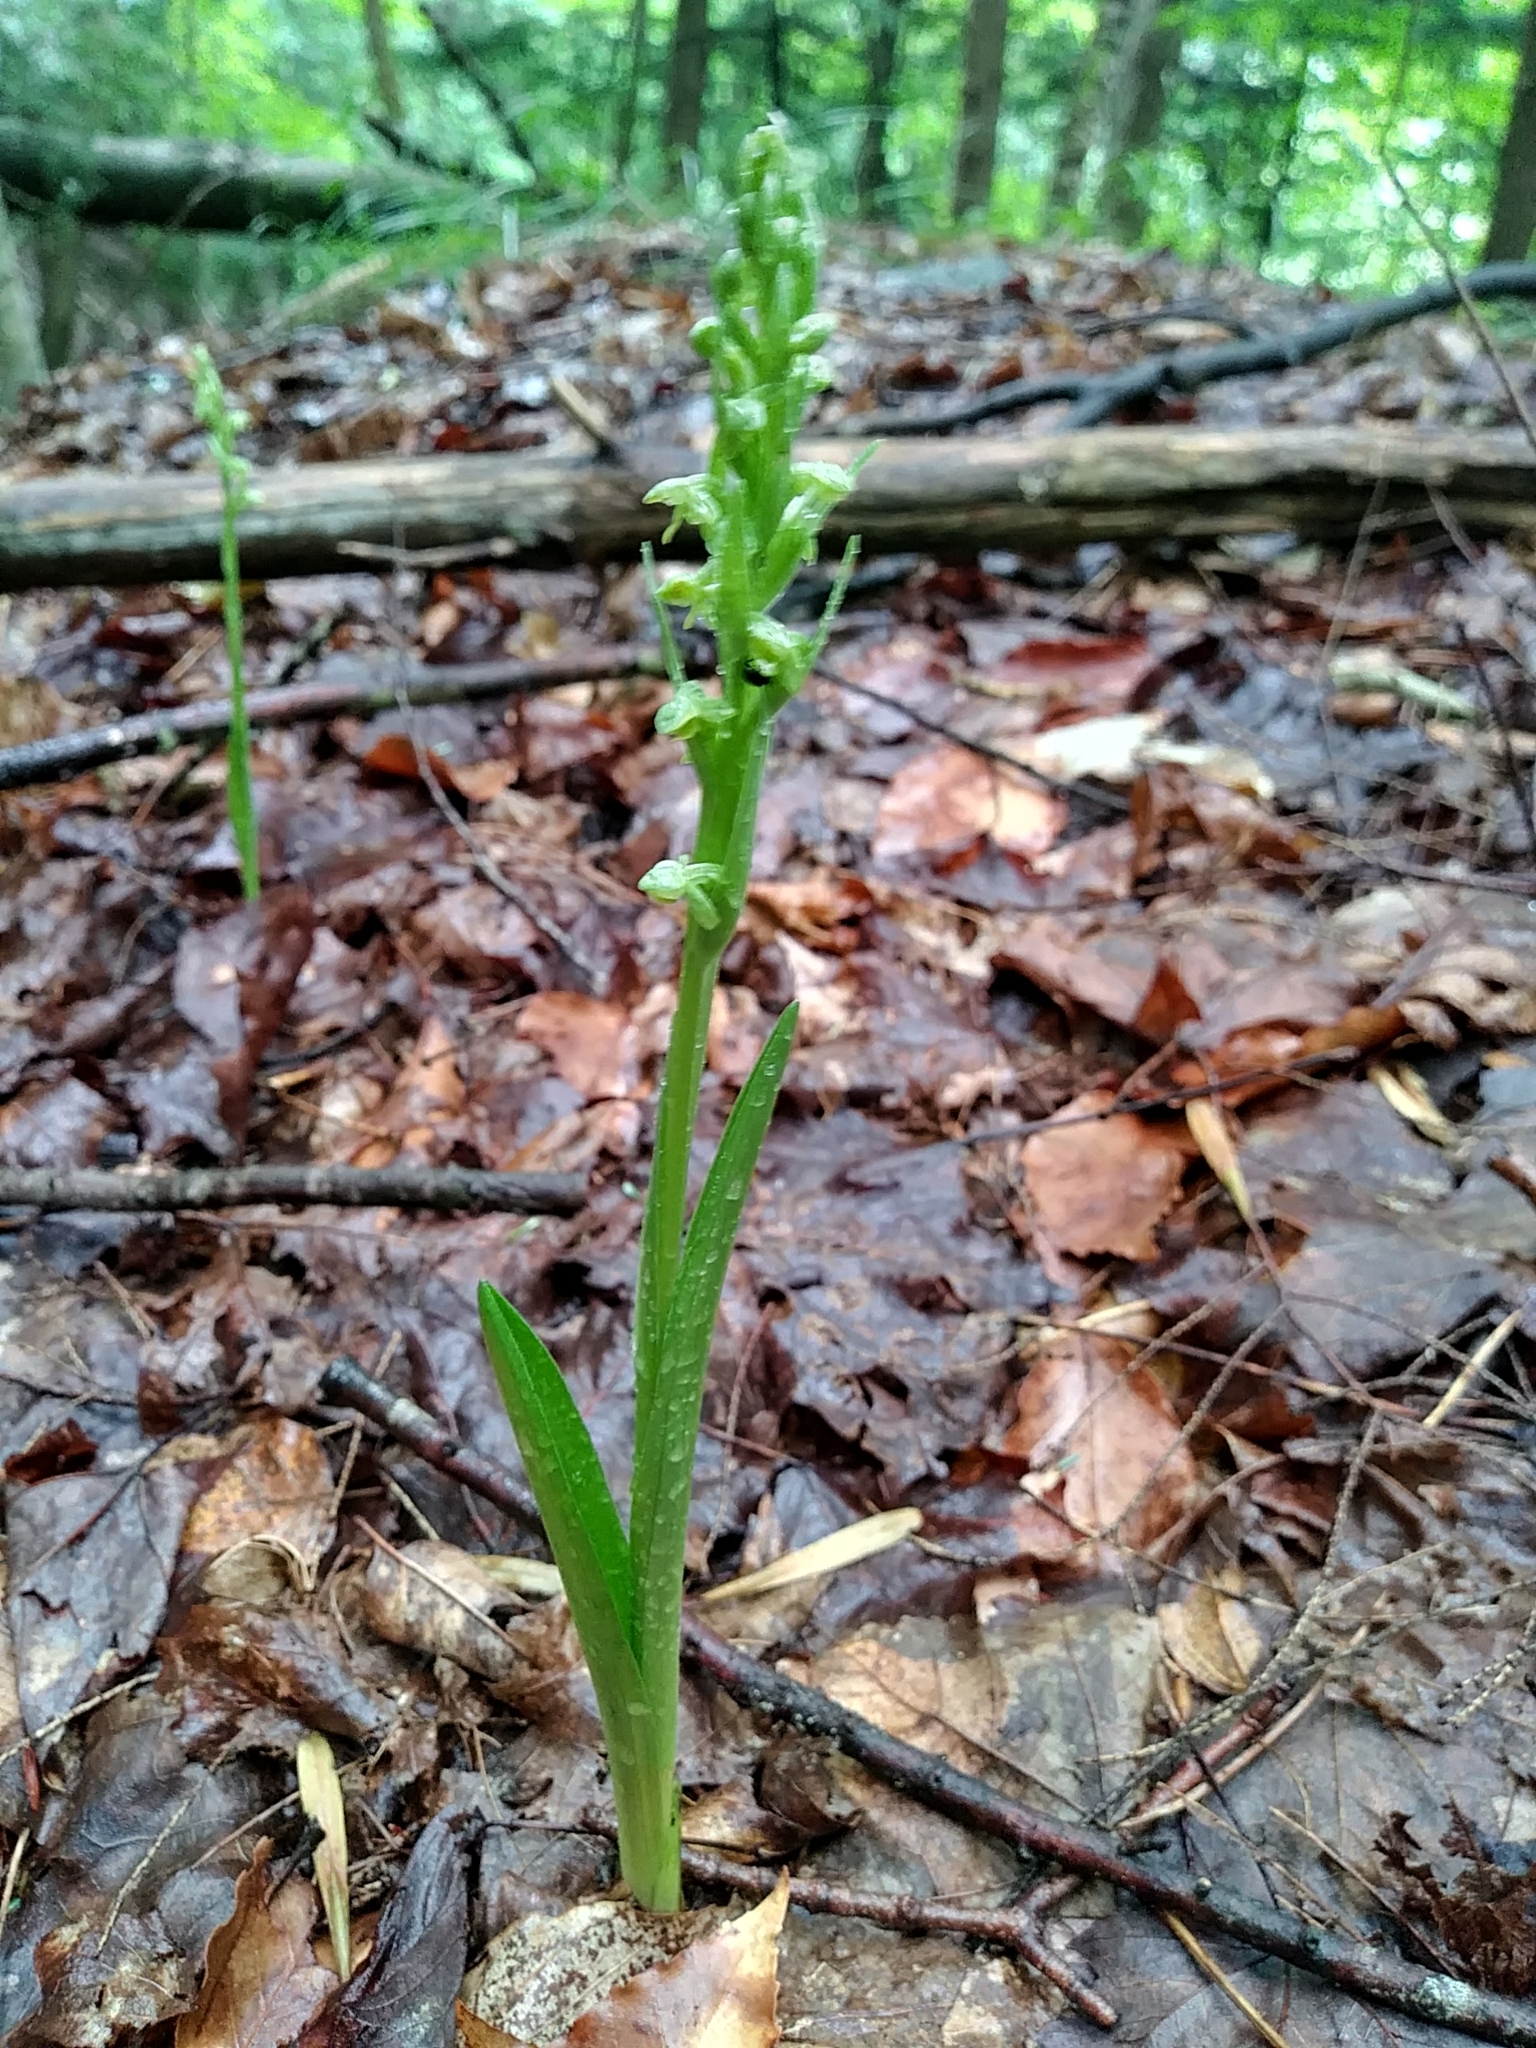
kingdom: Plantae
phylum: Tracheophyta
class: Liliopsida
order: Asparagales
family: Orchidaceae
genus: Platanthera
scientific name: Platanthera aquilonis
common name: Northern green orchid
